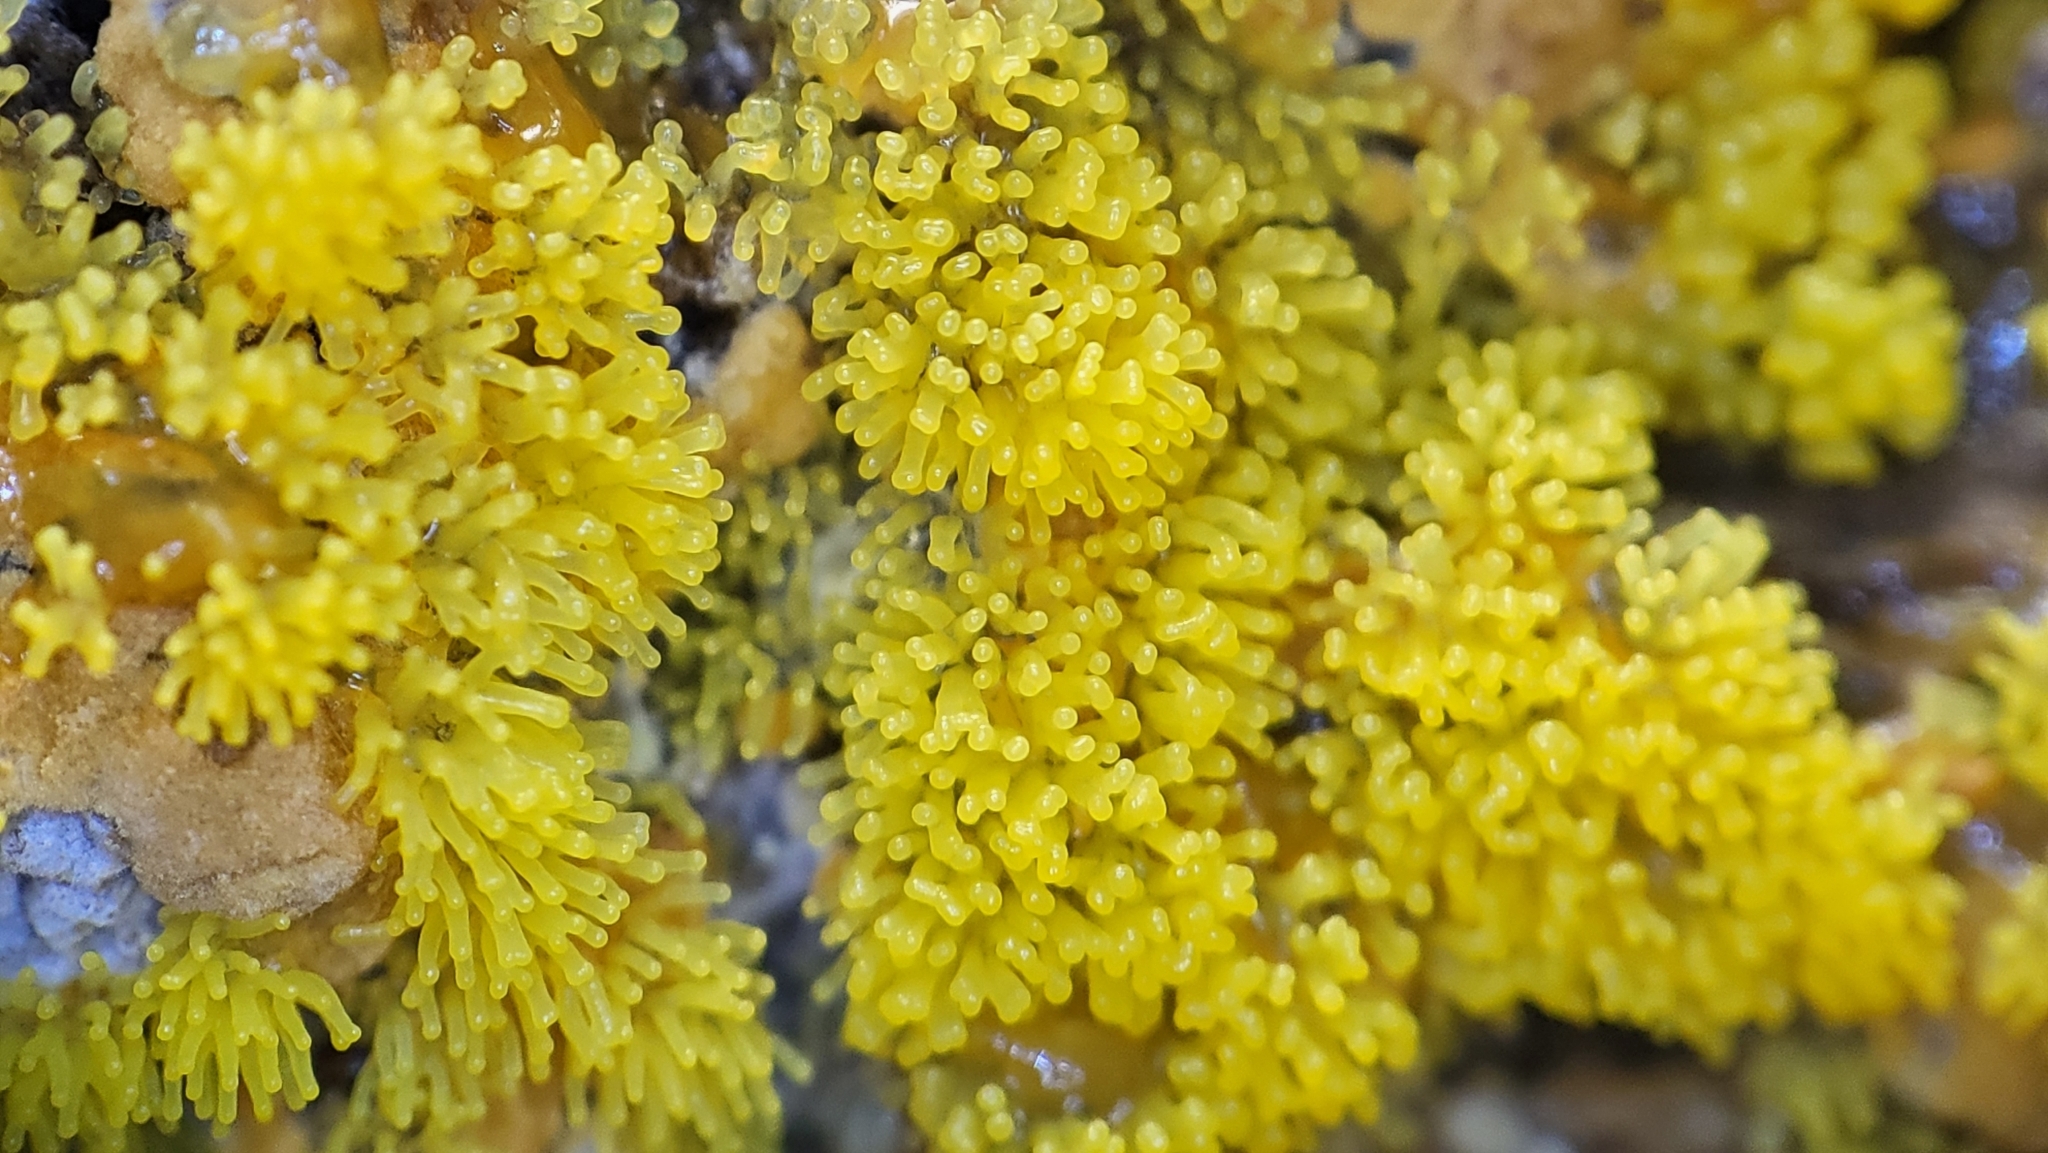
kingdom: Protozoa
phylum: Mycetozoa
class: Protosteliomycetes
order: Ceratiomyxales
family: Ceratiomyxaceae
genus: Ceratiomyxa
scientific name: Ceratiomyxa fruticulosa
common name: Honeycomb coral slime mold
